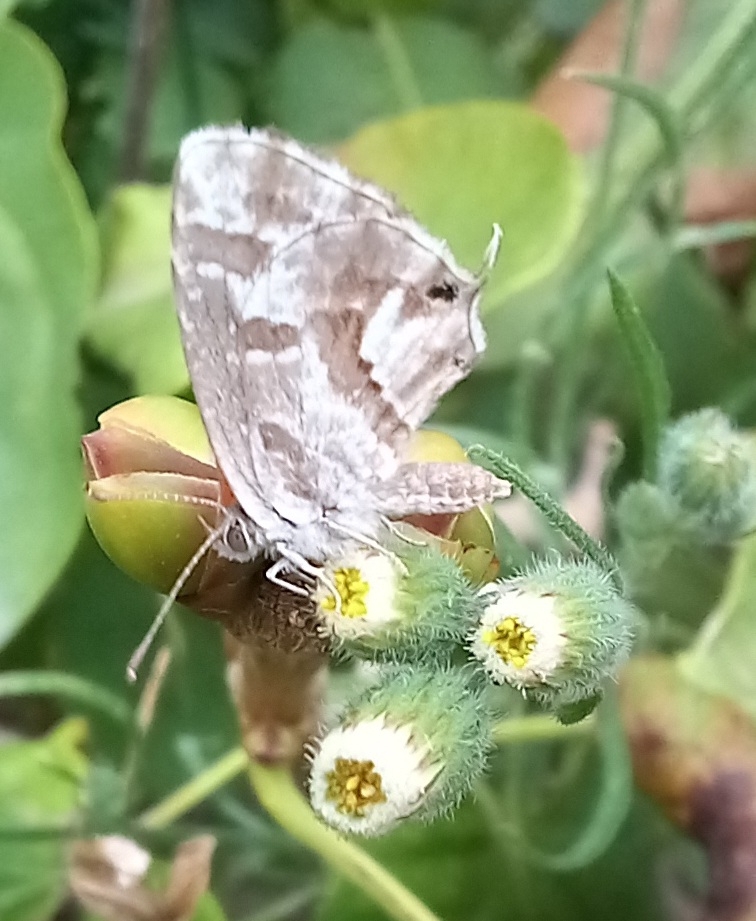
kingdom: Animalia
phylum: Arthropoda
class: Insecta
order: Lepidoptera
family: Lycaenidae
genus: Cacyreus
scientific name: Cacyreus marshalli
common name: Geranium bronze
